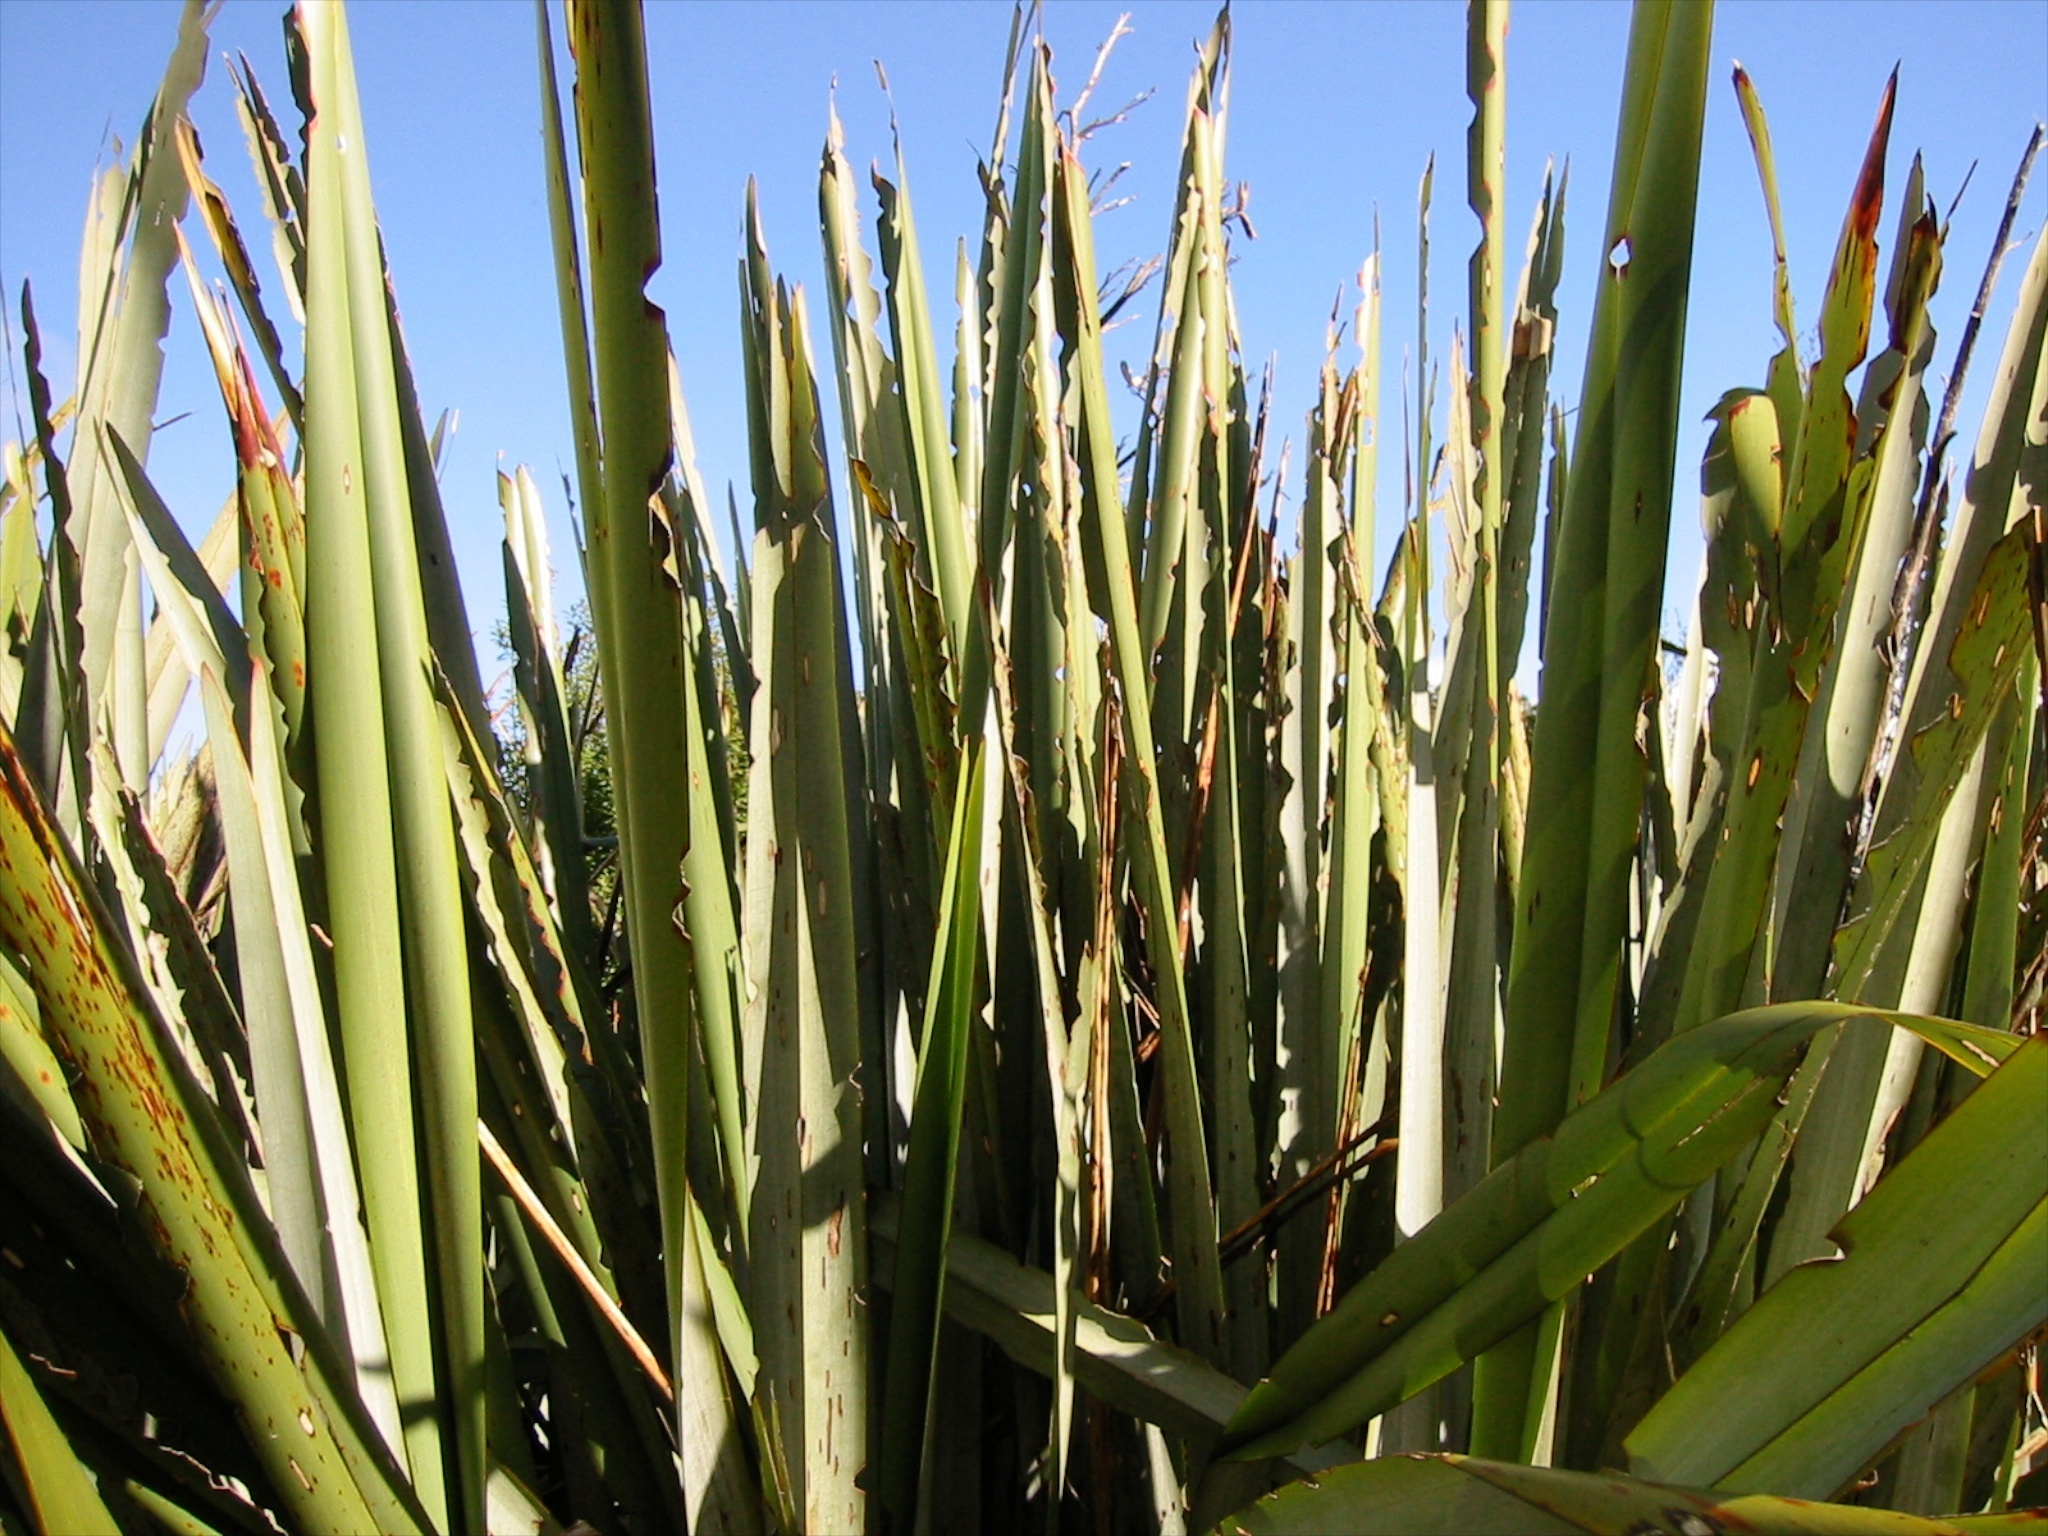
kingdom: Animalia
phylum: Arthropoda
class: Insecta
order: Lepidoptera
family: Noctuidae
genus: Ichneutica
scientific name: Ichneutica
